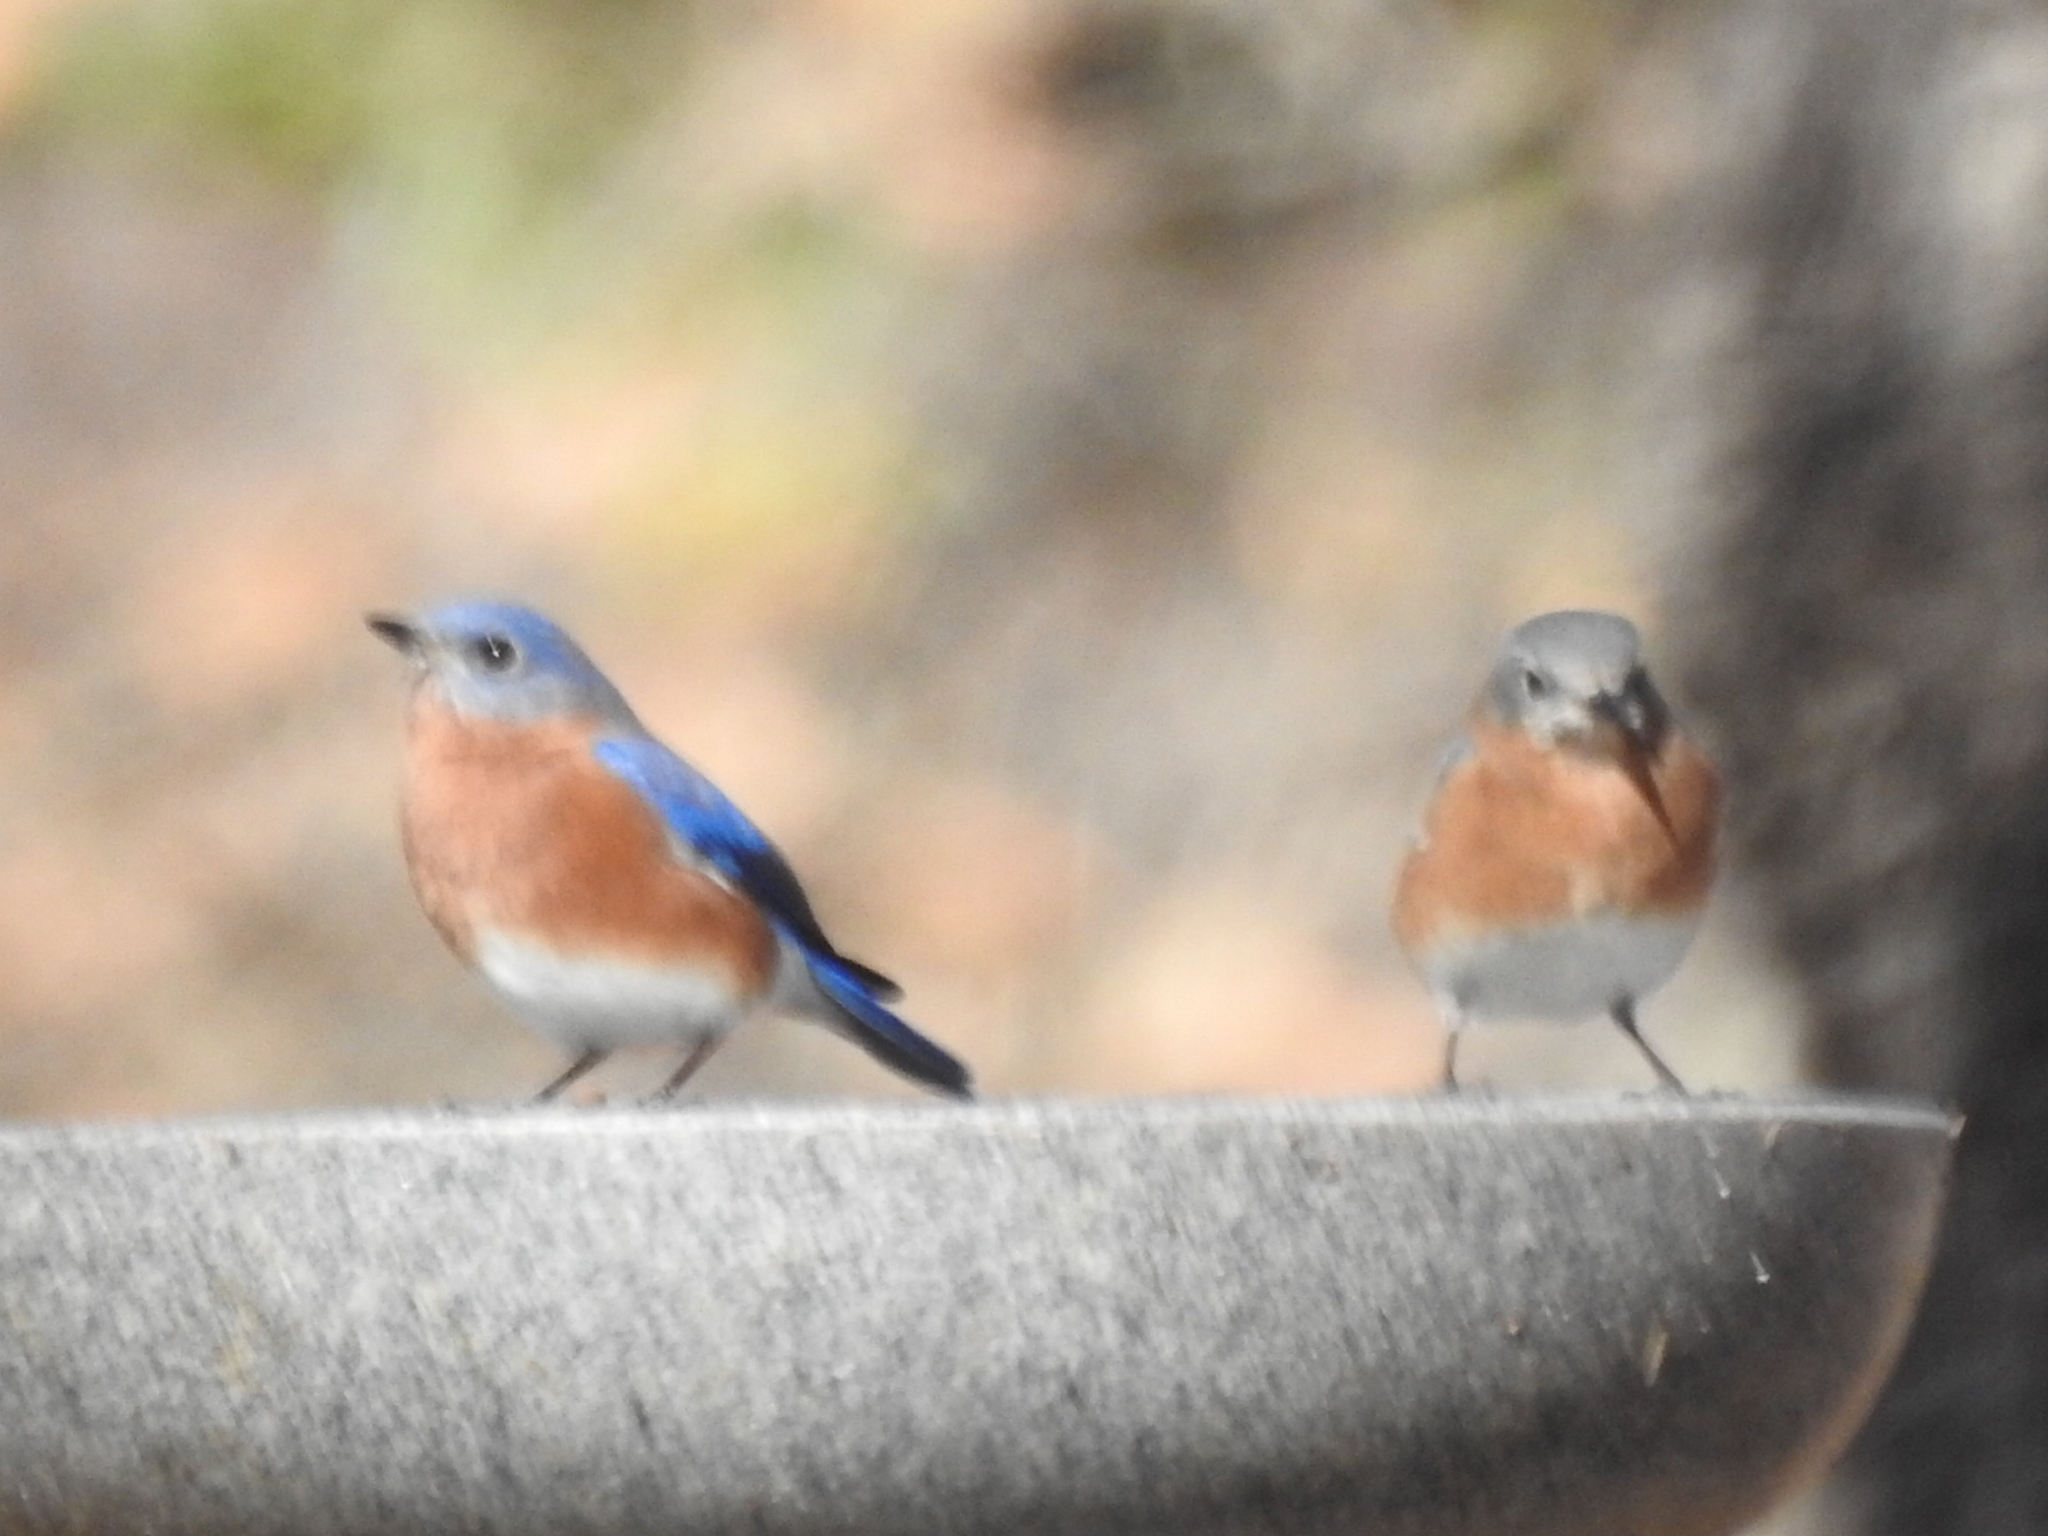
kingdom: Animalia
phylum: Chordata
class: Aves
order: Passeriformes
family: Turdidae
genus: Sialia
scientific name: Sialia sialis
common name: Eastern bluebird
